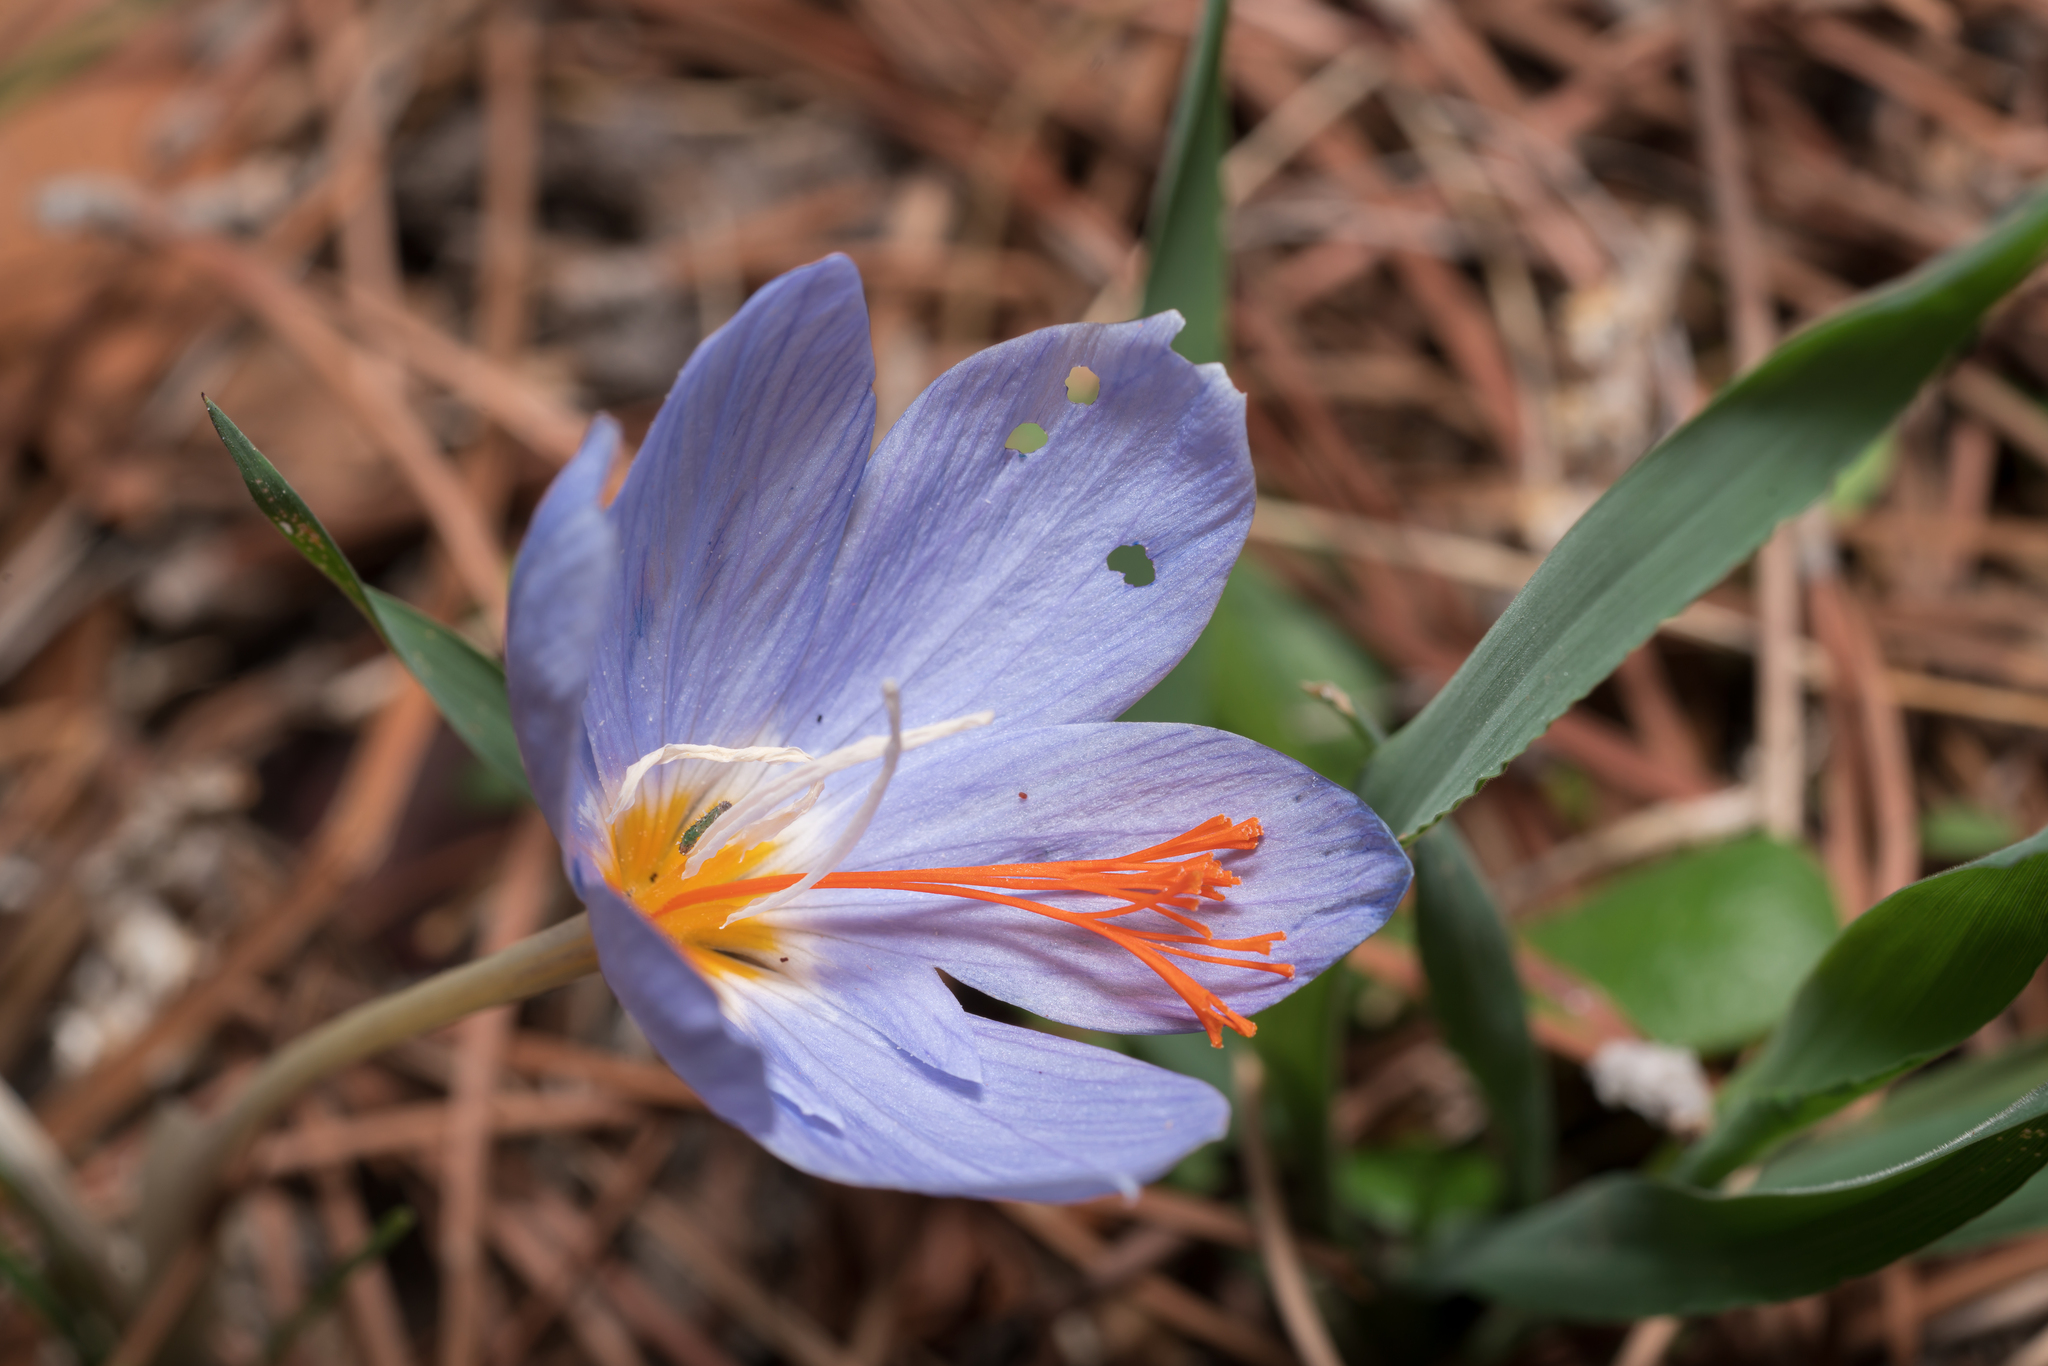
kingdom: Plantae
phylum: Tracheophyta
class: Liliopsida
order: Asparagales
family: Iridaceae
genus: Crocus
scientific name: Crocus tournefortii
